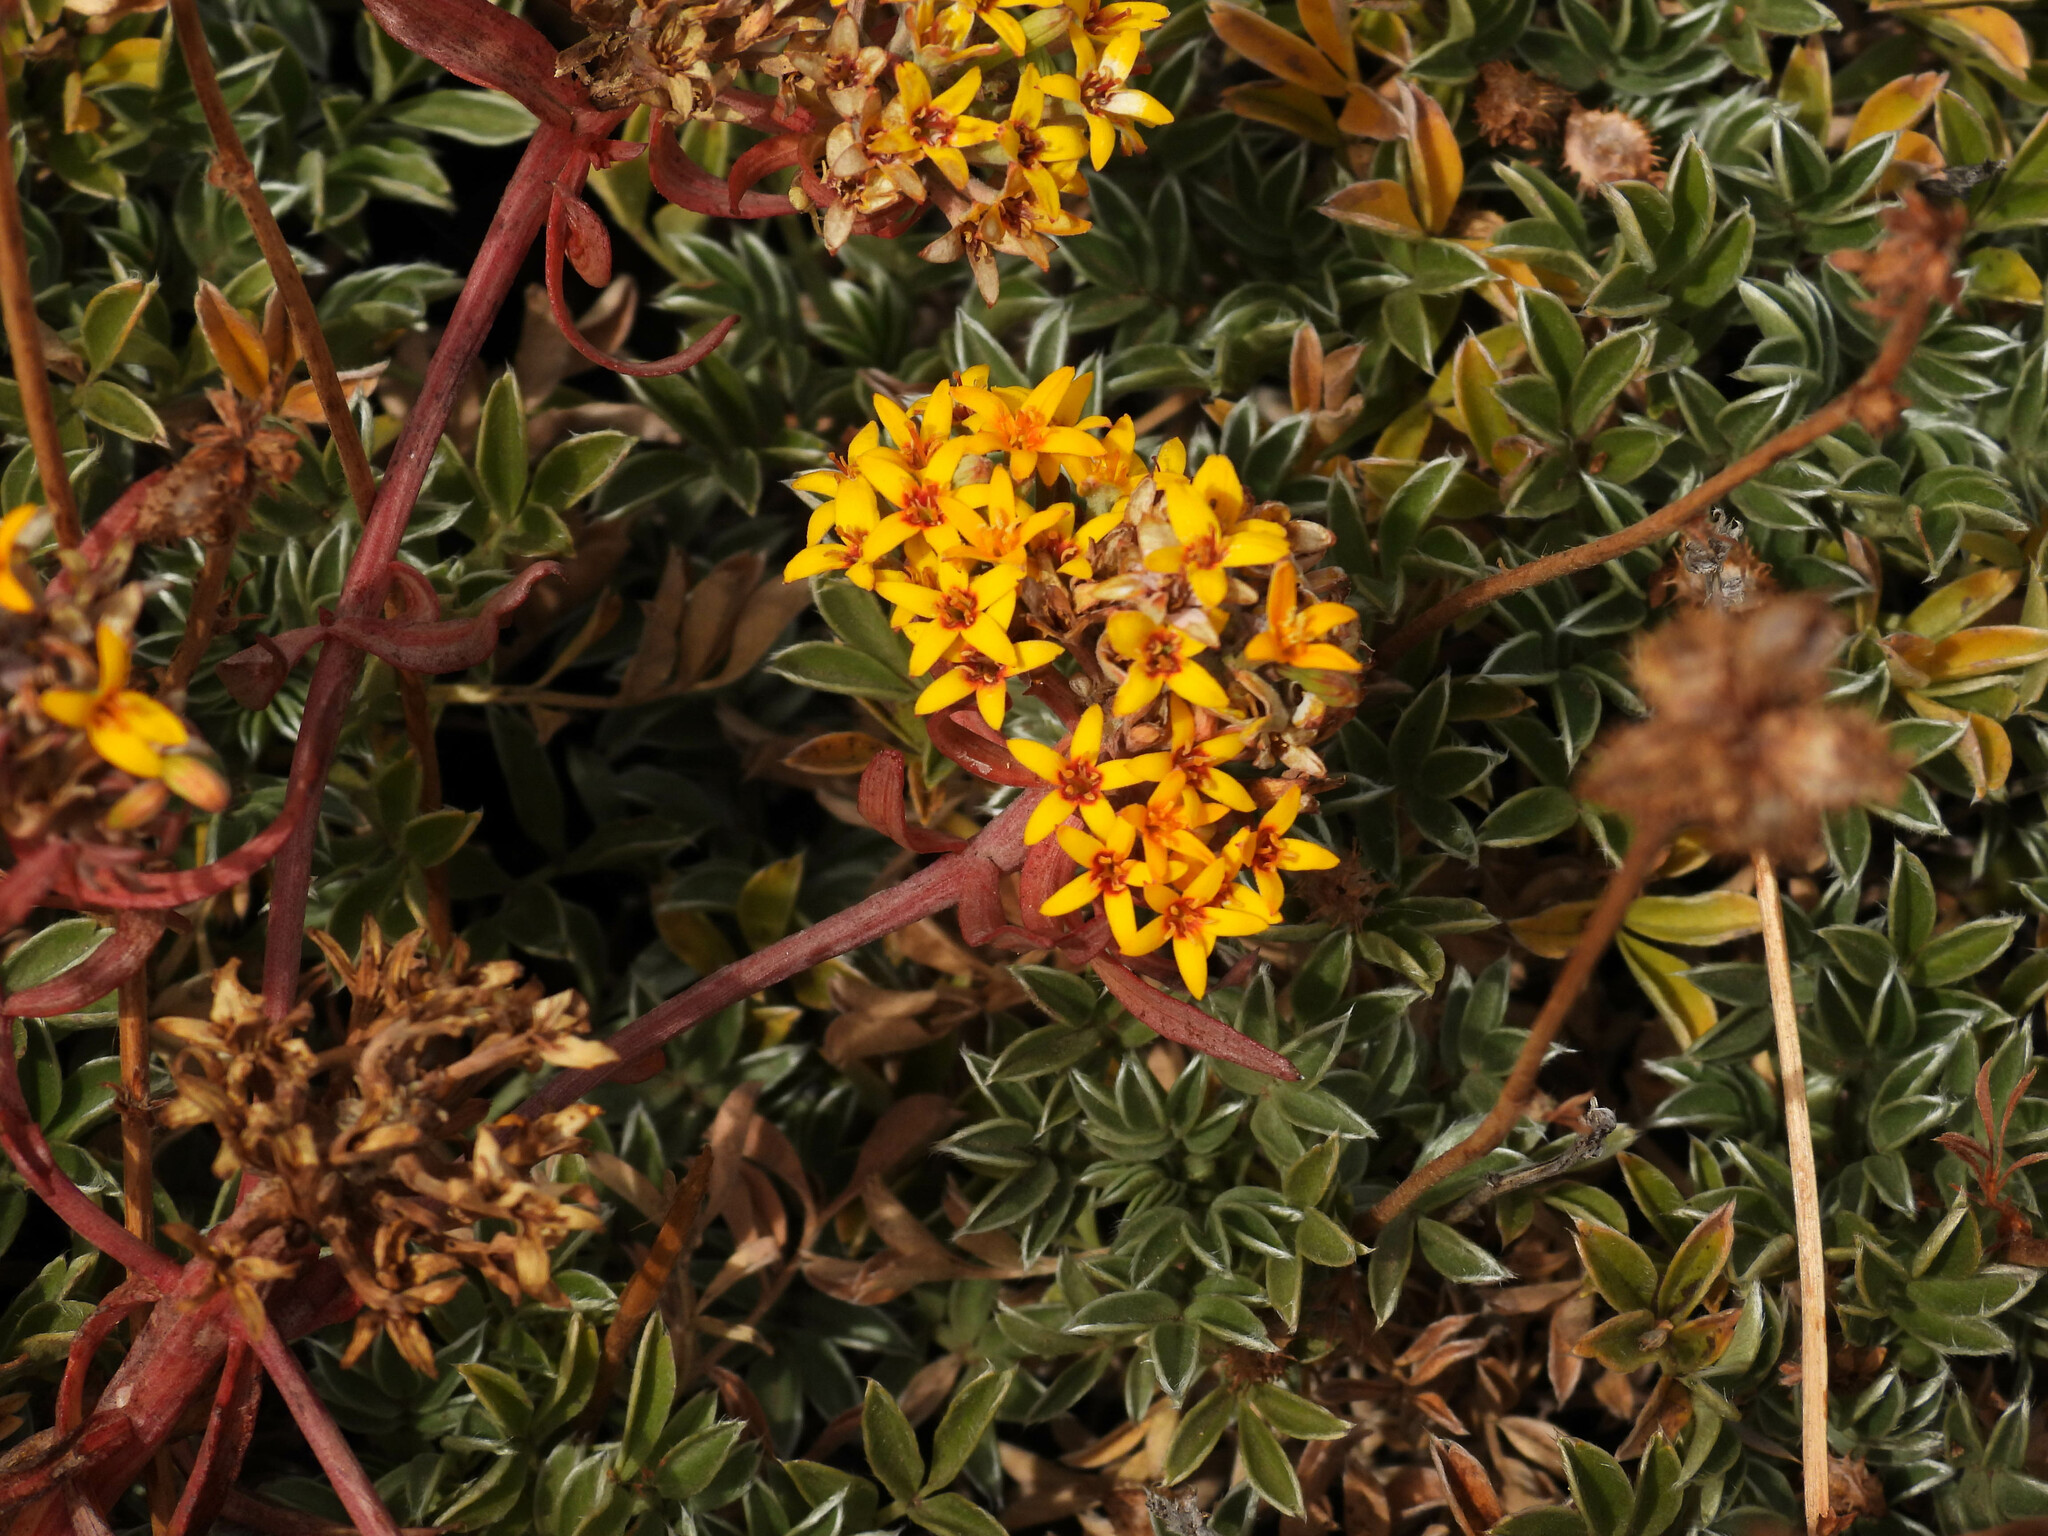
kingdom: Plantae
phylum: Tracheophyta
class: Magnoliopsida
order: Santalales
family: Schoepfiaceae
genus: Quinchamalium
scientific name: Quinchamalium chilense
